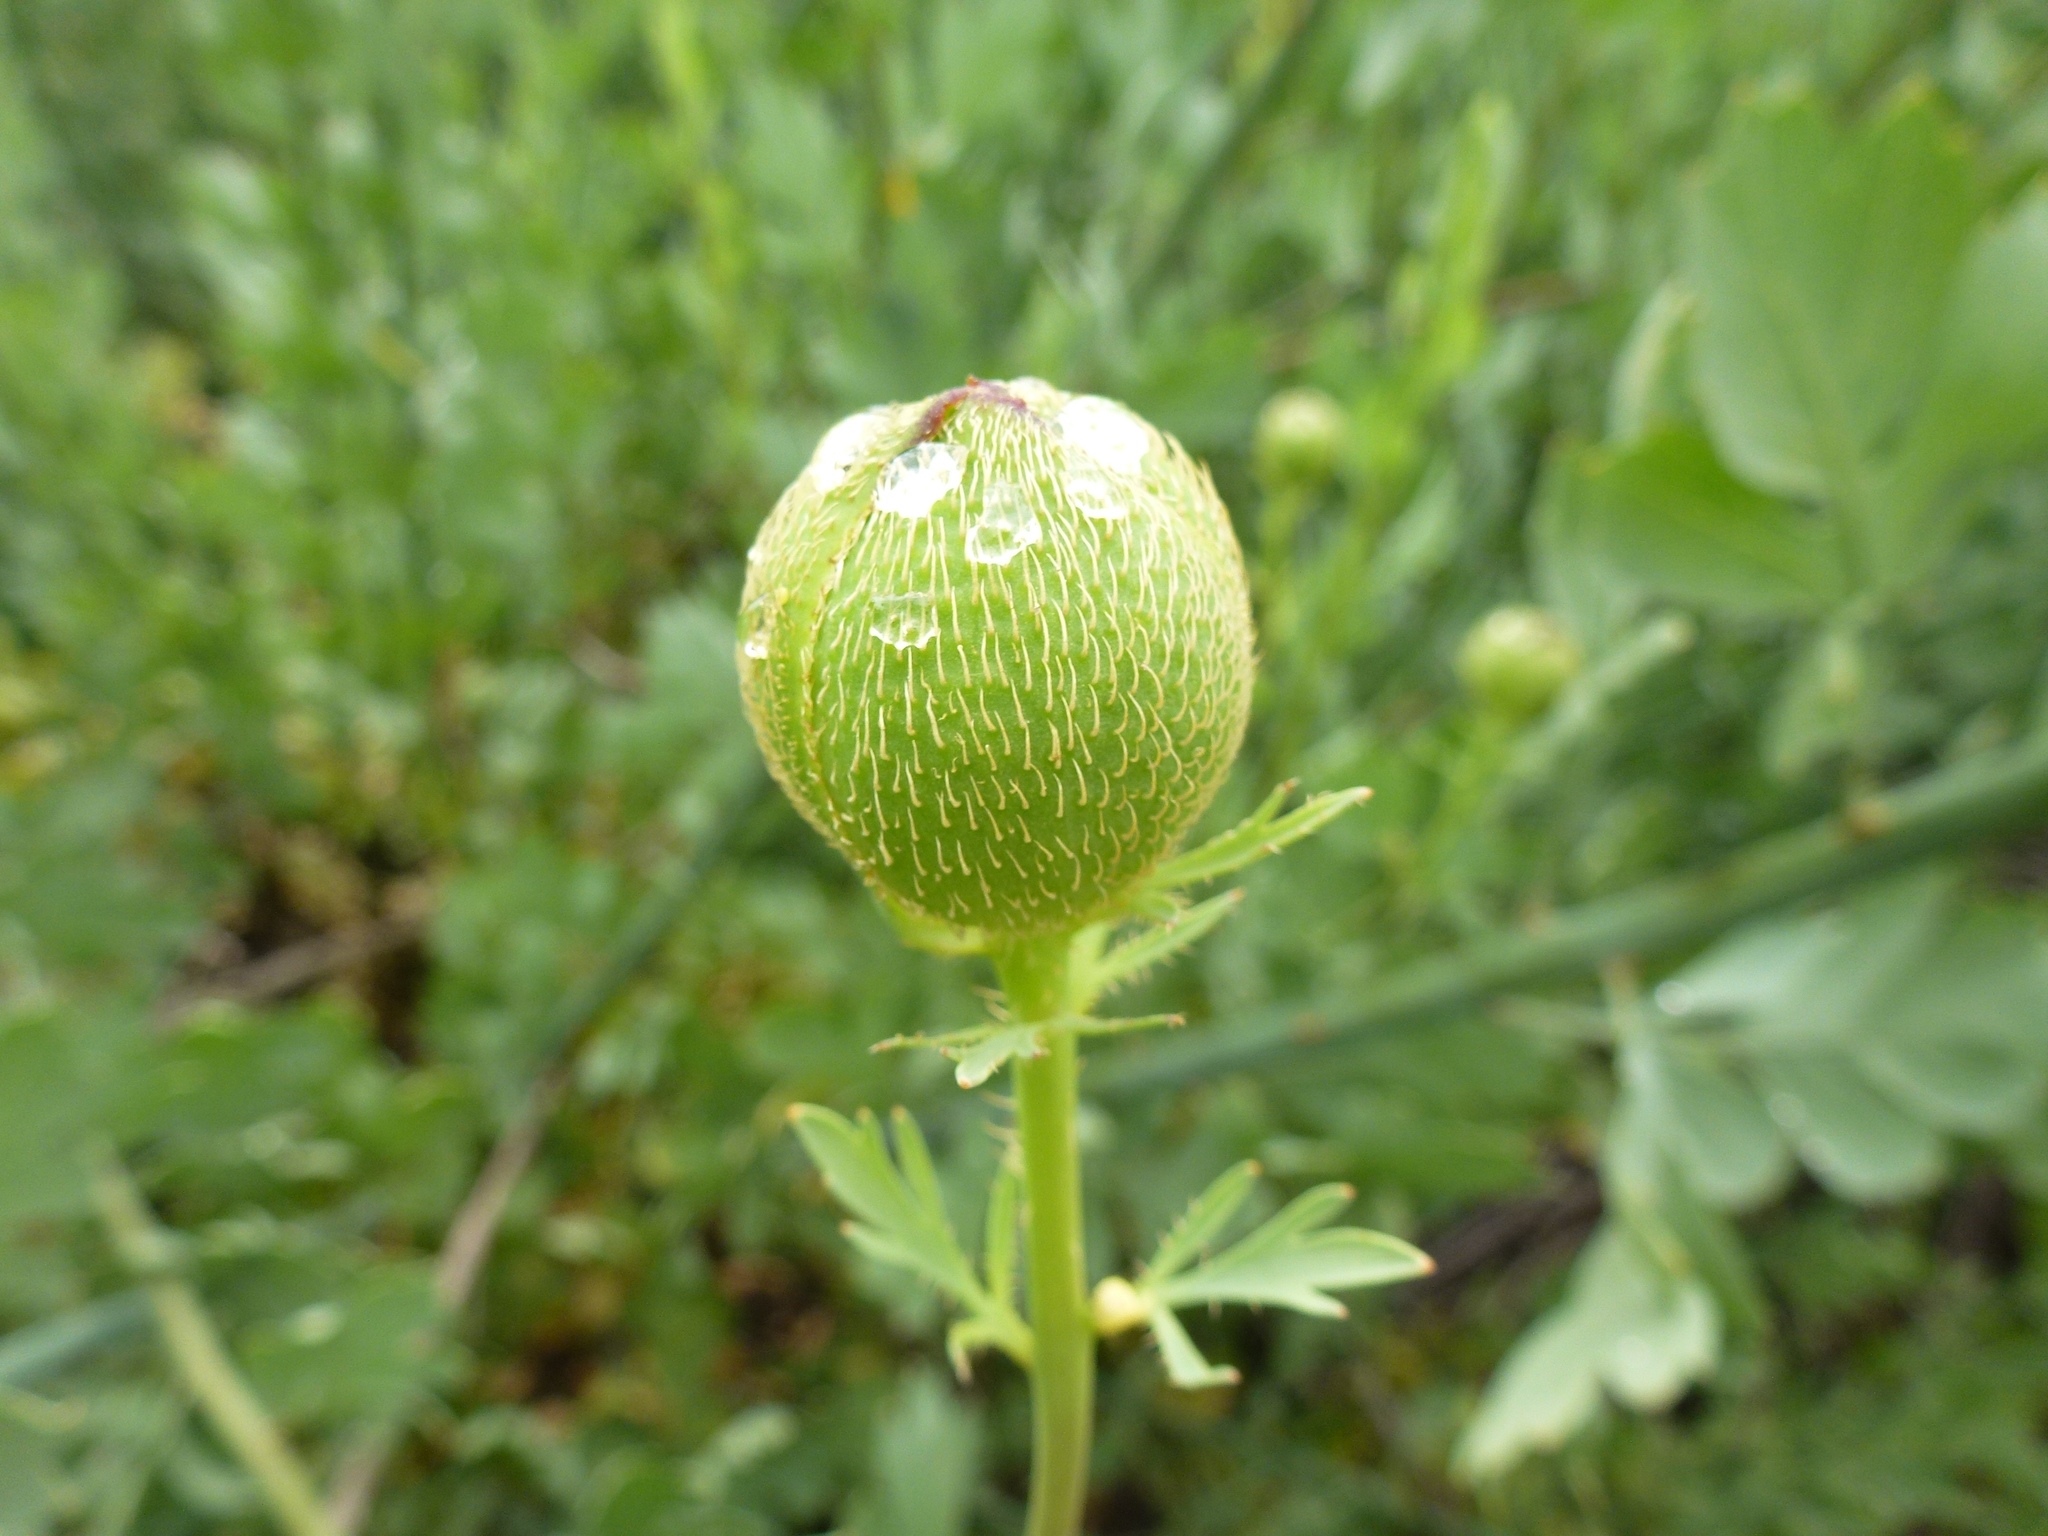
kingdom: Plantae
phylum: Tracheophyta
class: Magnoliopsida
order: Ranunculales
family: Papaveraceae
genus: Romneya
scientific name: Romneya trichocalyx
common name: Hairy matilija-poppy
